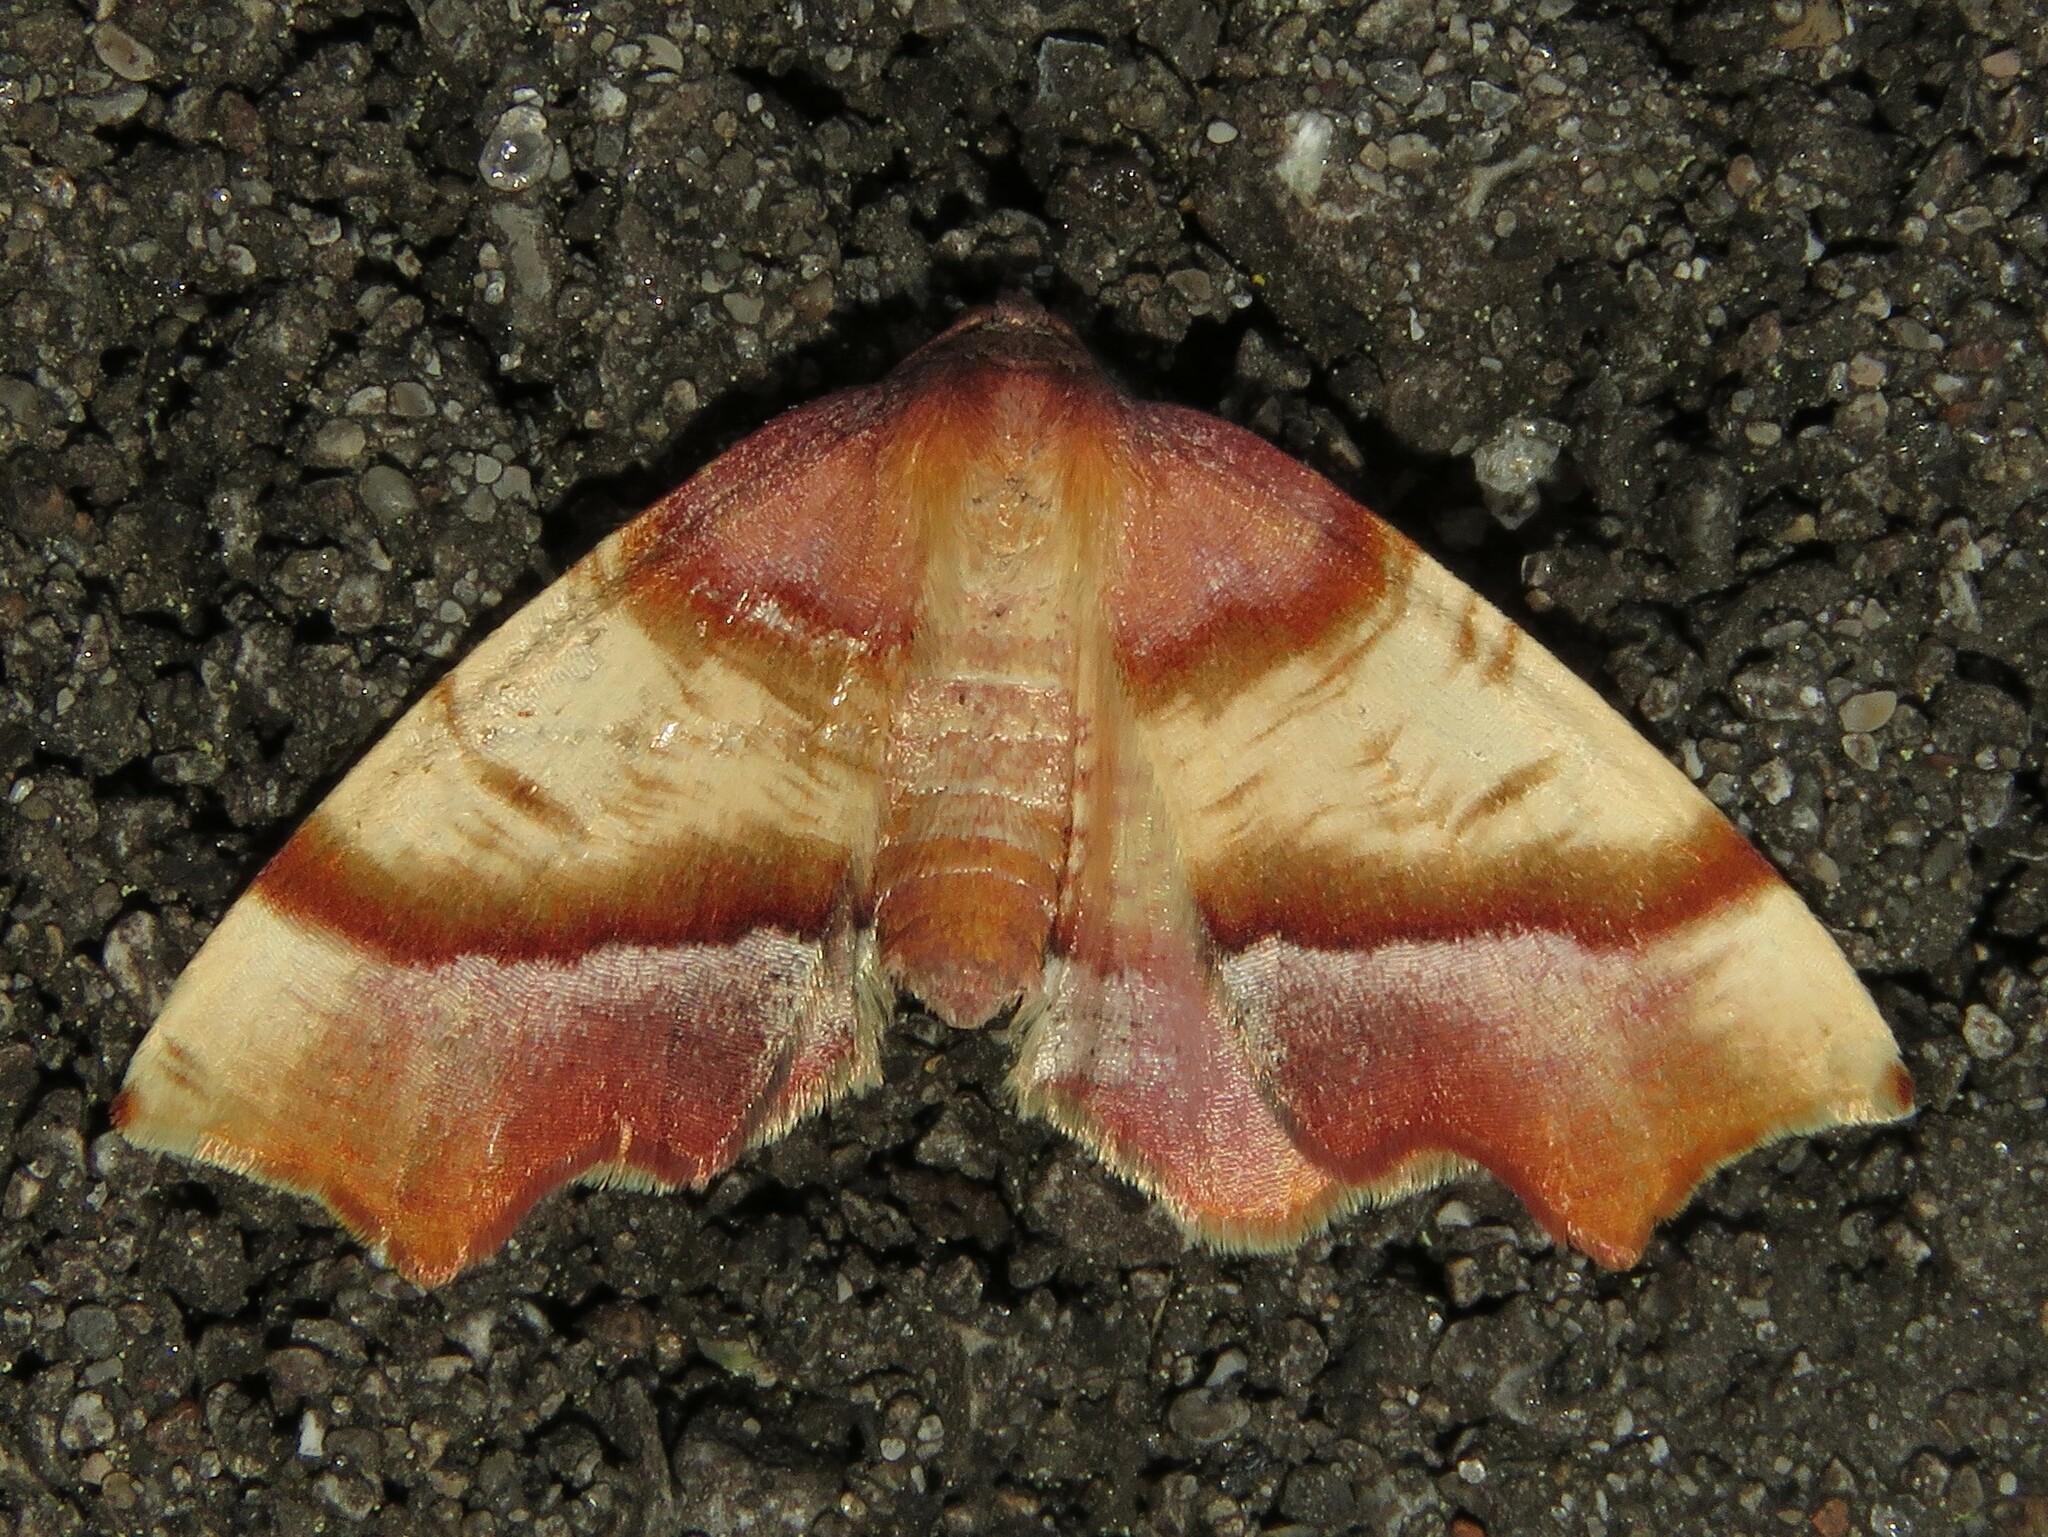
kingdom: Animalia
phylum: Arthropoda
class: Insecta
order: Lepidoptera
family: Geometridae
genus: Plagodis
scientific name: Plagodis phlogosaria
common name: Straight-lined plagodis
